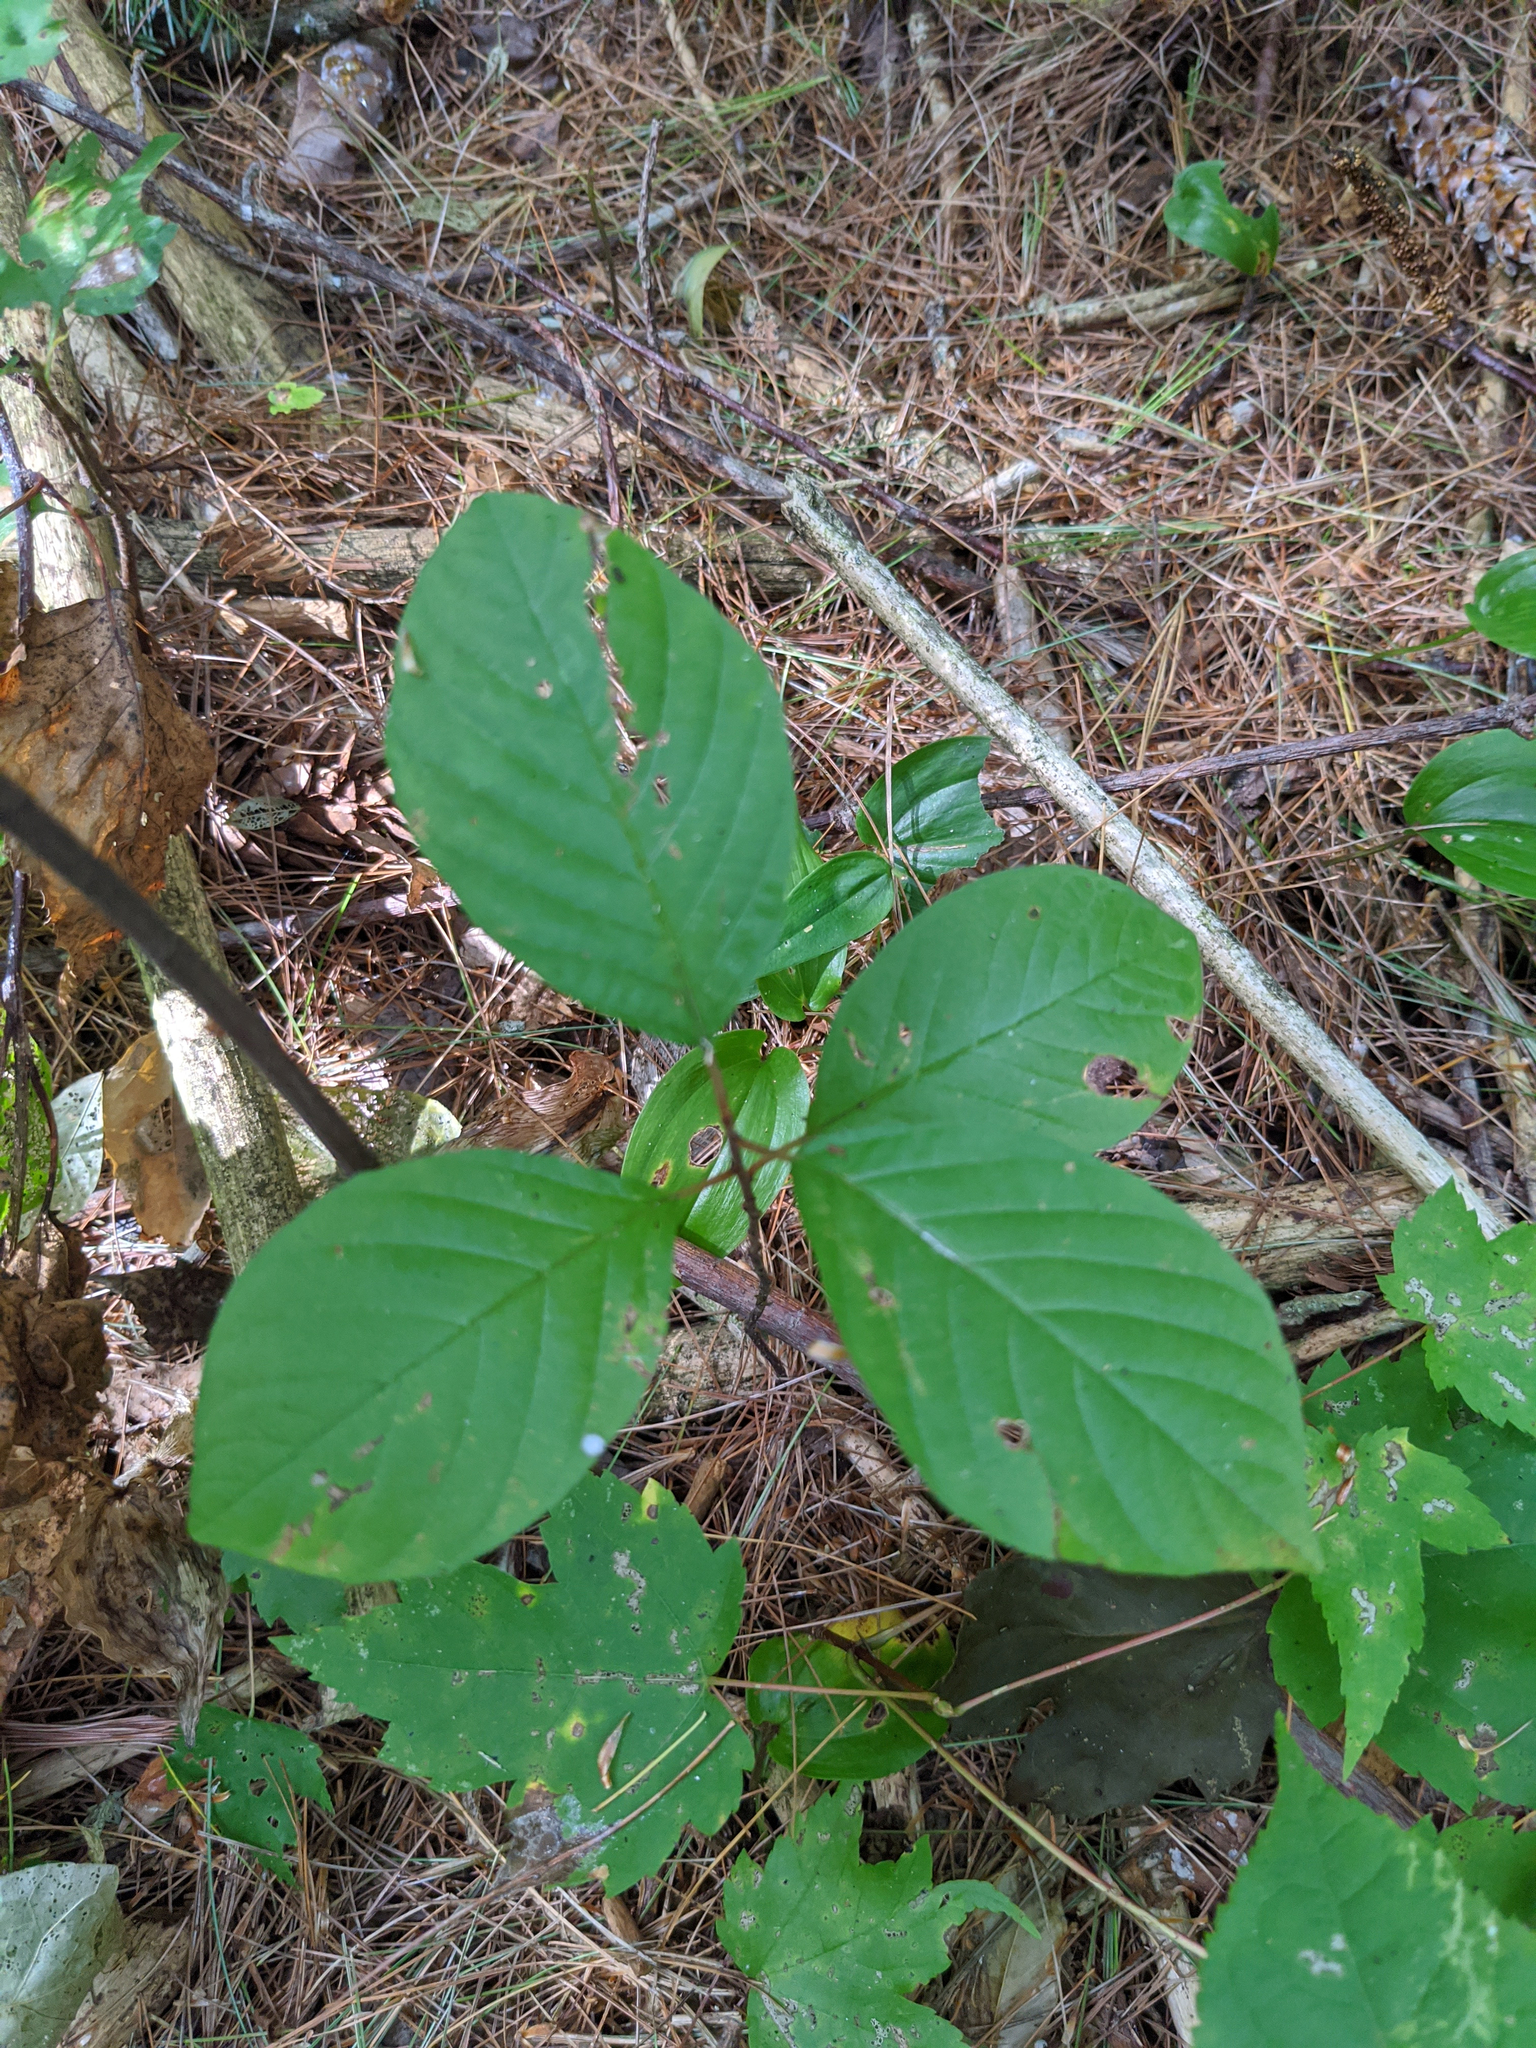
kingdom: Plantae
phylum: Tracheophyta
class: Magnoliopsida
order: Rosales
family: Rhamnaceae
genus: Frangula
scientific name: Frangula alnus
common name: Alder buckthorn
